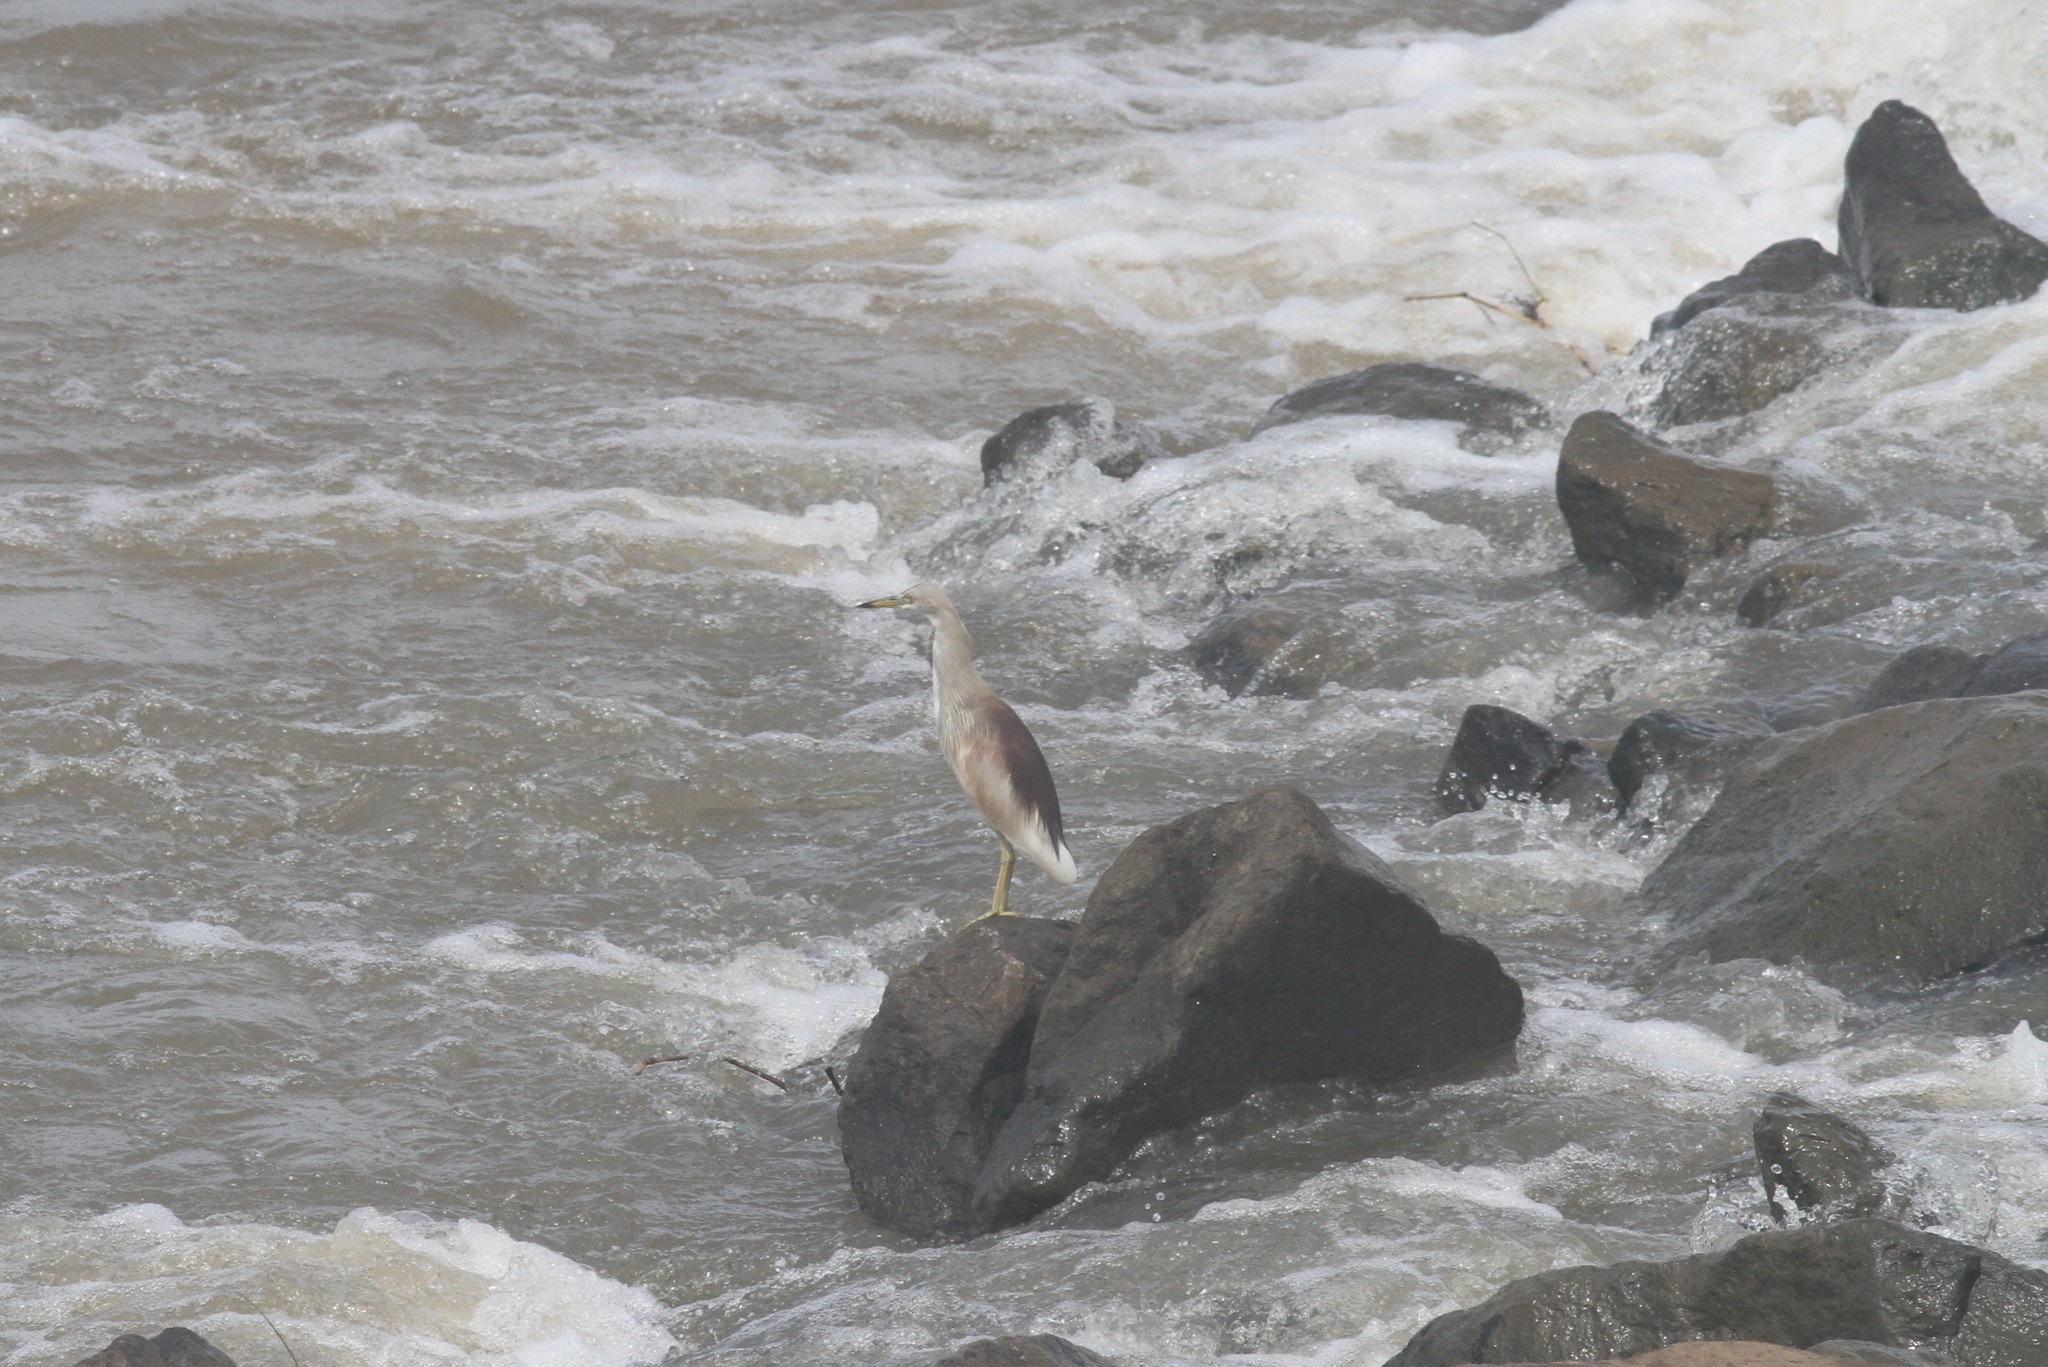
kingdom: Animalia
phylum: Chordata
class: Aves
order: Pelecaniformes
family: Ardeidae
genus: Ardeola
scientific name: Ardeola grayii
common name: Indian pond heron
